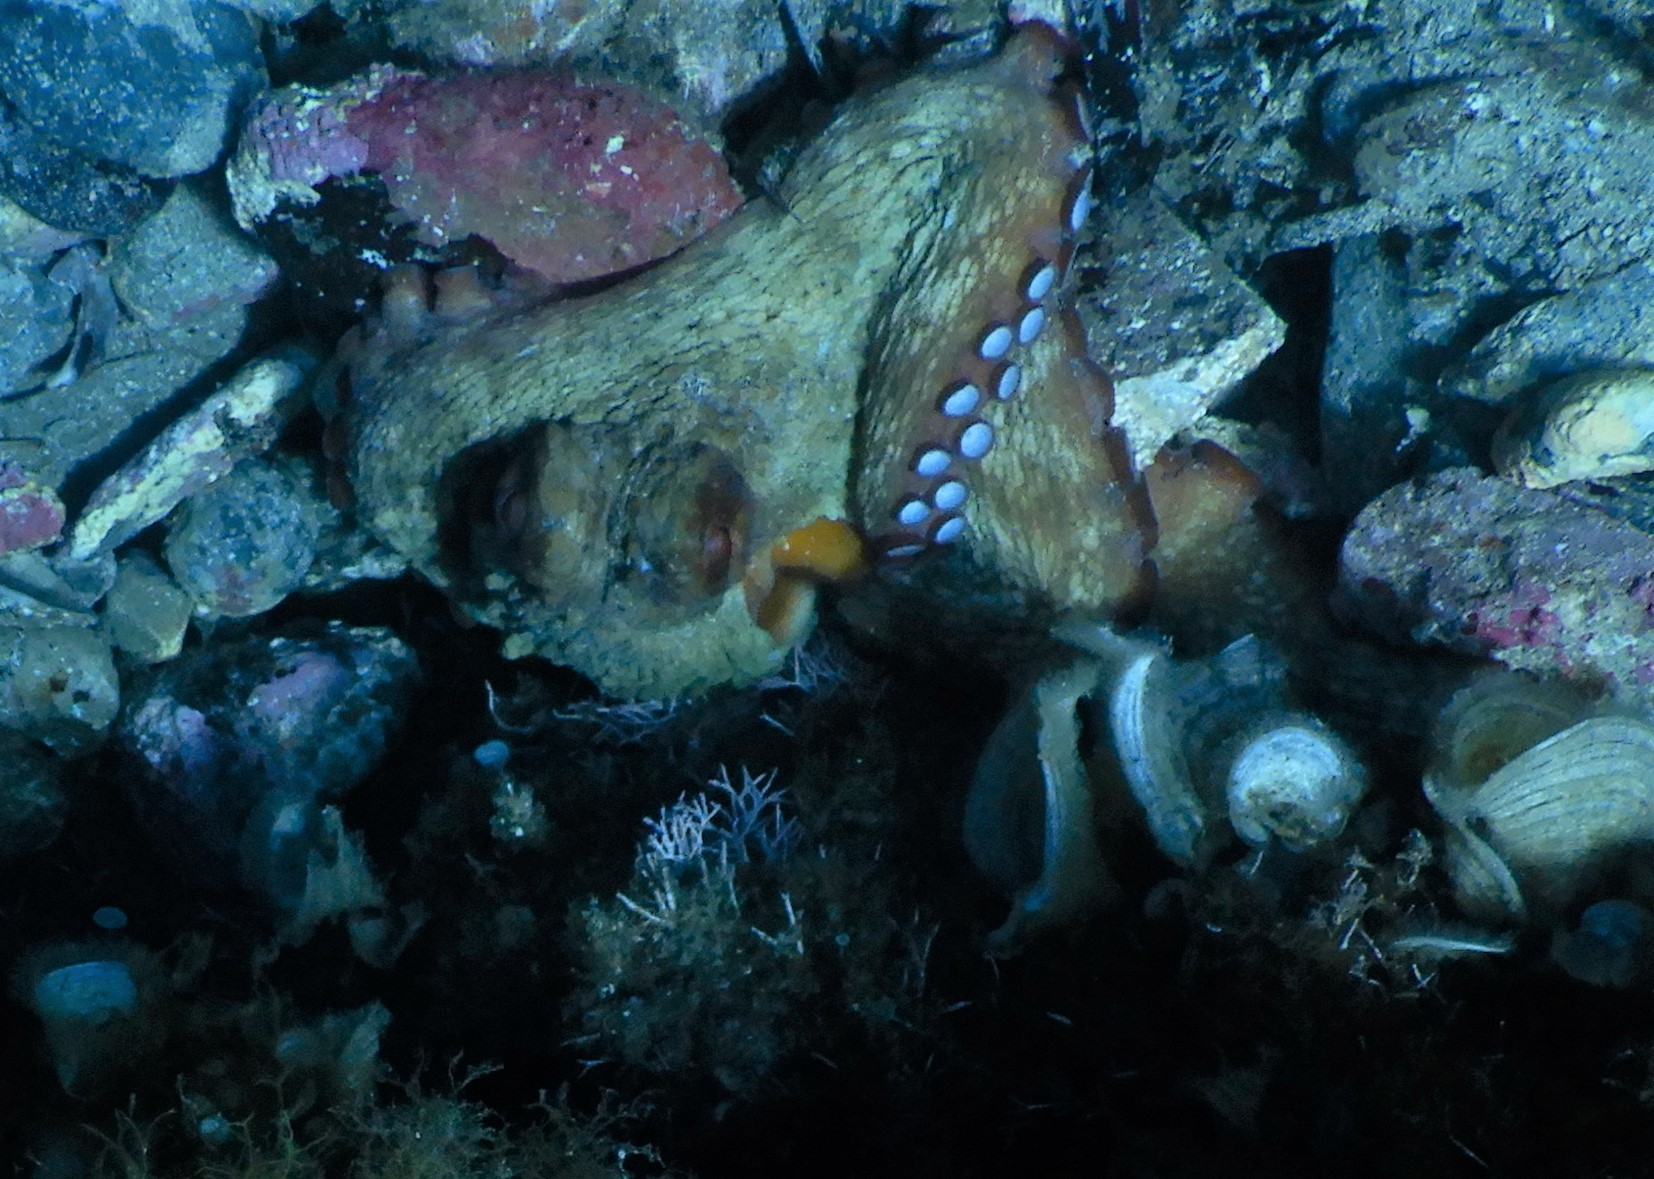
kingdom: Animalia
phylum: Mollusca
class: Cephalopoda
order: Octopoda
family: Octopodidae
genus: Octopus
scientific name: Octopus vulgaris
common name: Common octopus
